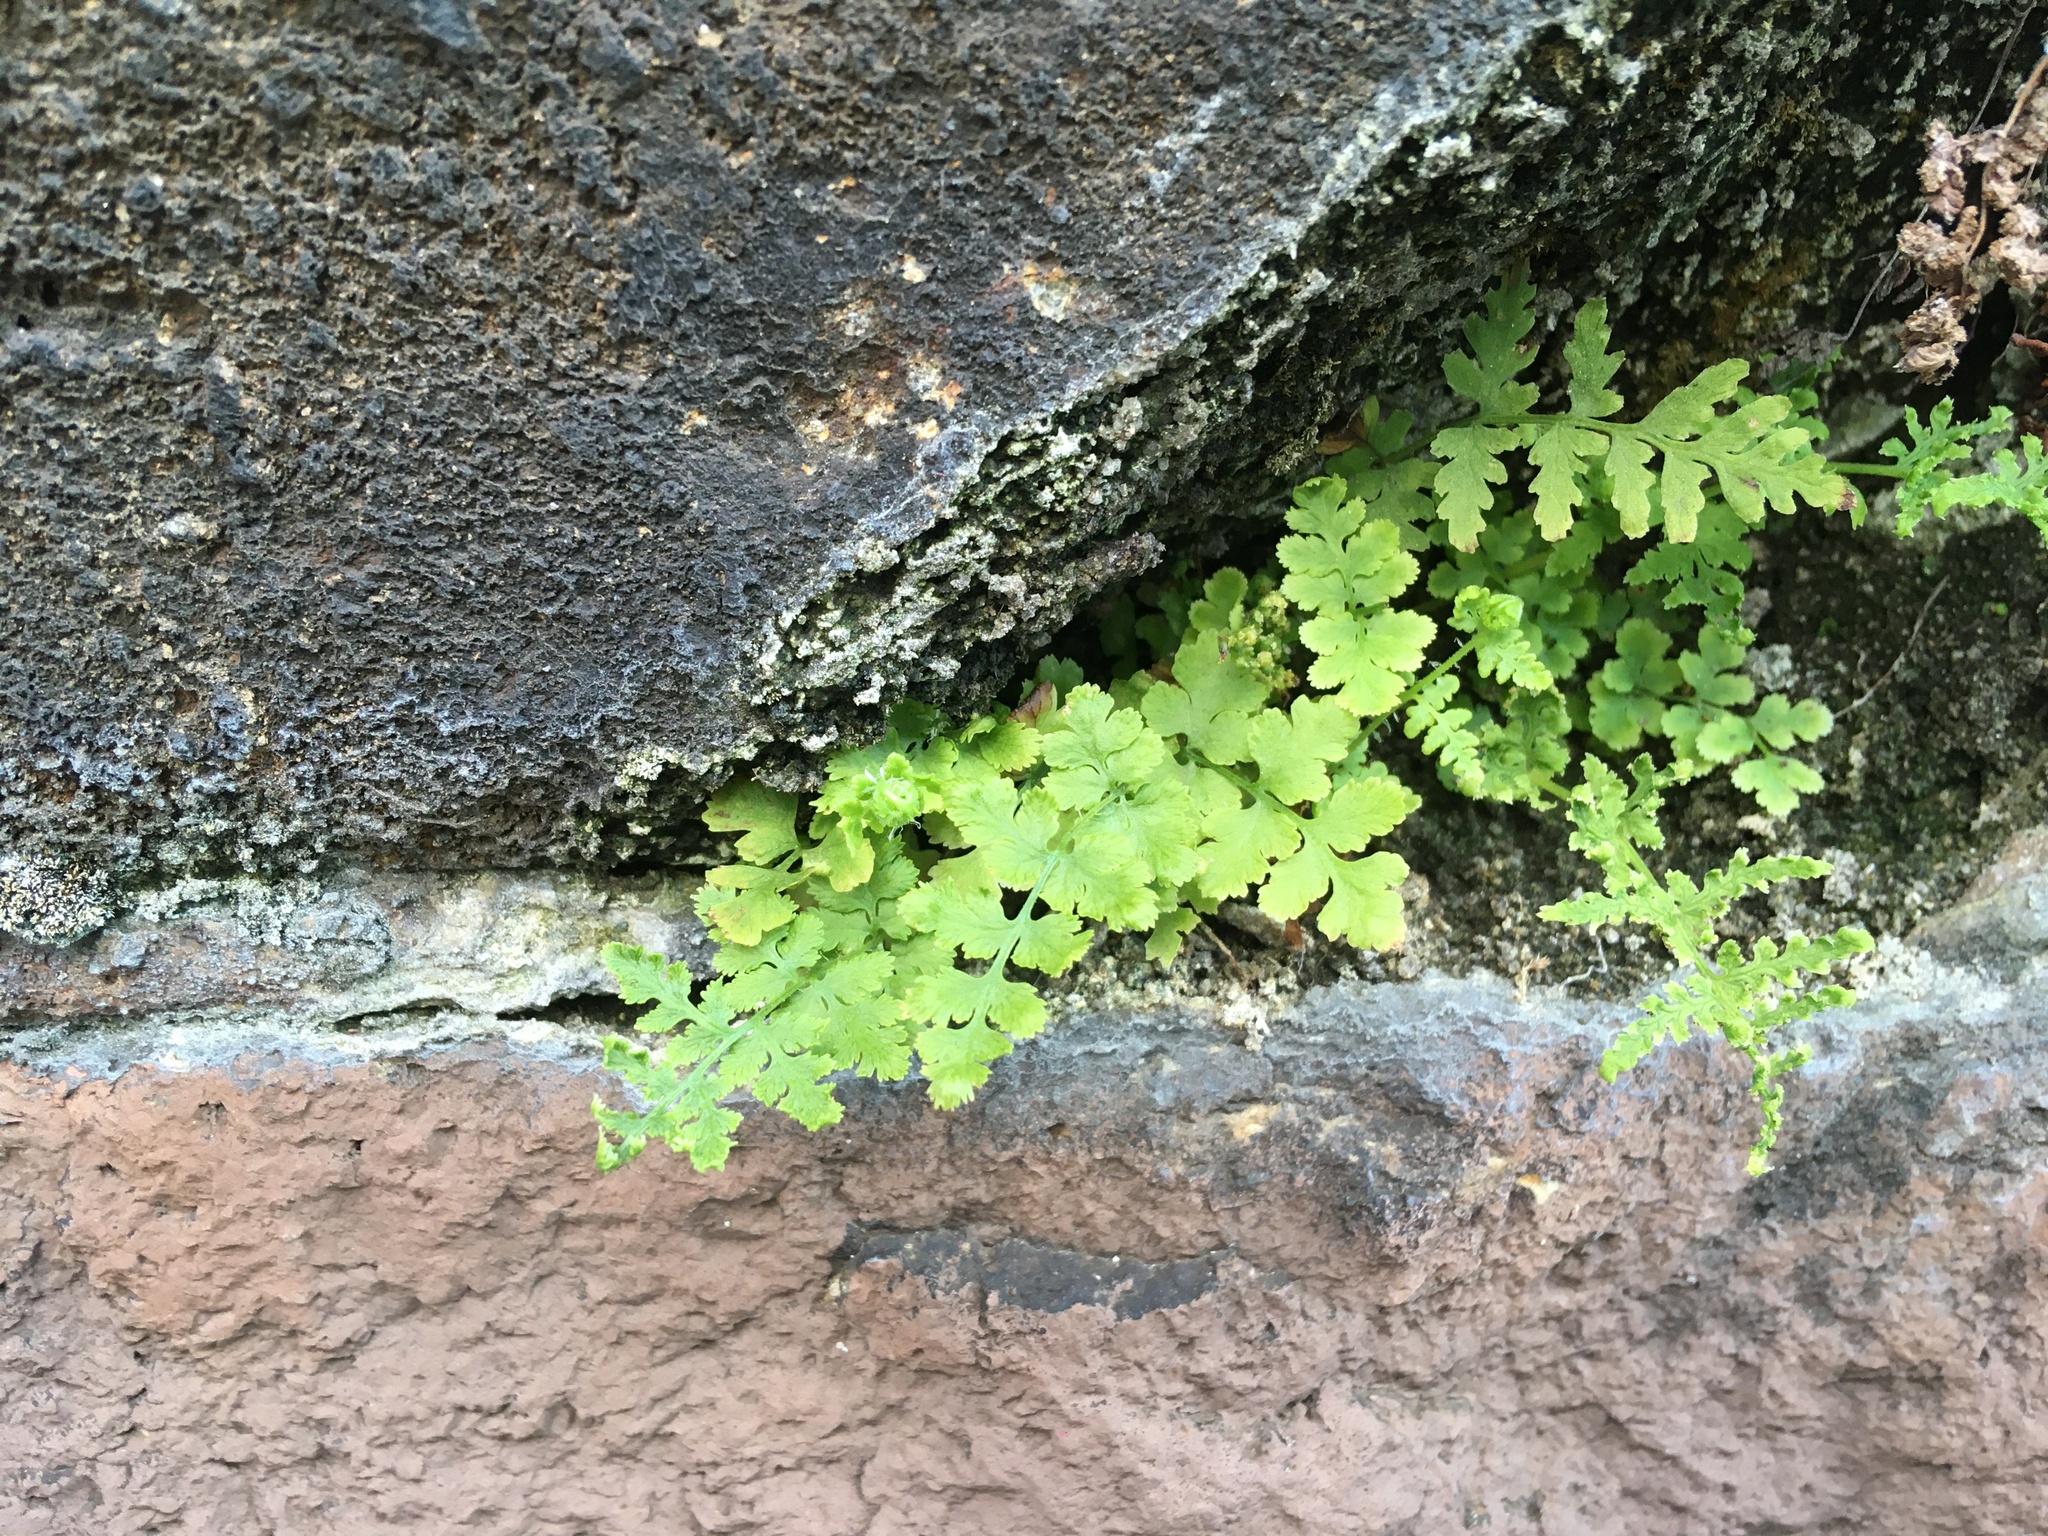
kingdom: Plantae
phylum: Tracheophyta
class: Polypodiopsida
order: Polypodiales
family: Woodsiaceae
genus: Physematium
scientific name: Physematium obtusum
